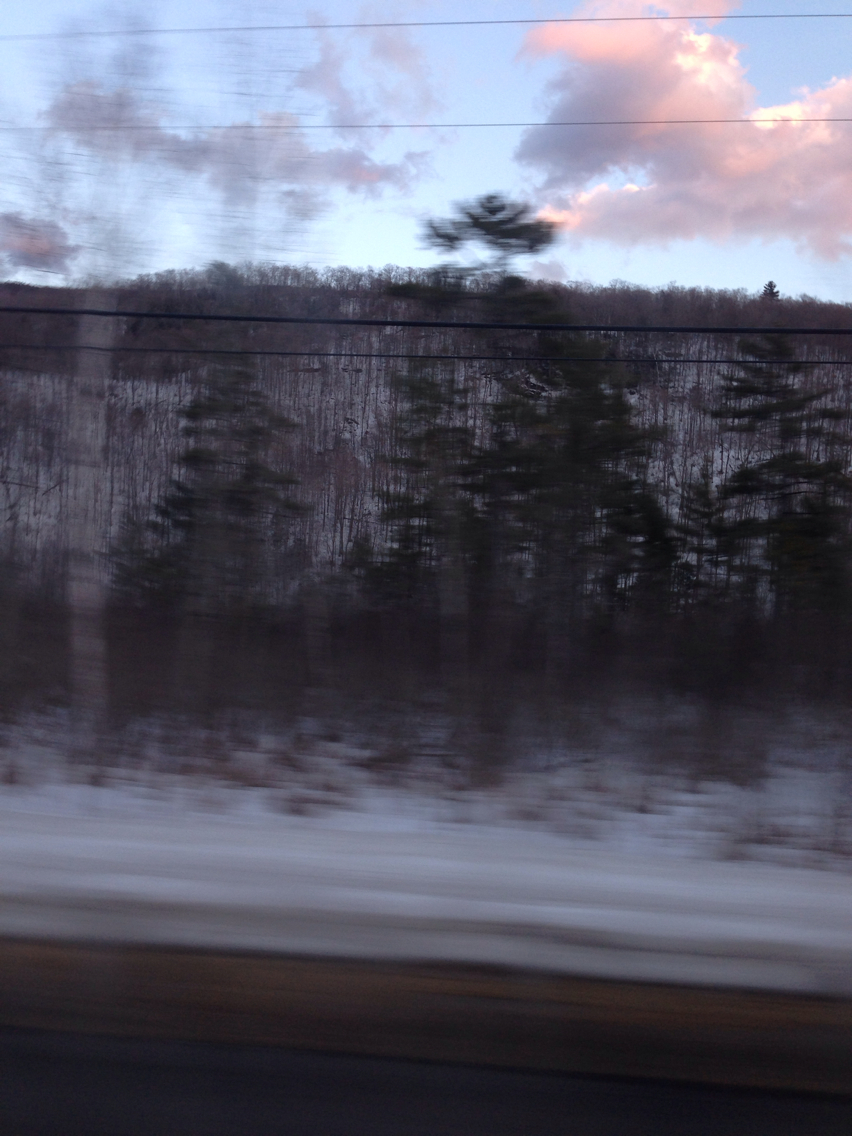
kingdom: Plantae
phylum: Tracheophyta
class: Pinopsida
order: Pinales
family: Pinaceae
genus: Pinus
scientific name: Pinus strobus
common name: Weymouth pine
